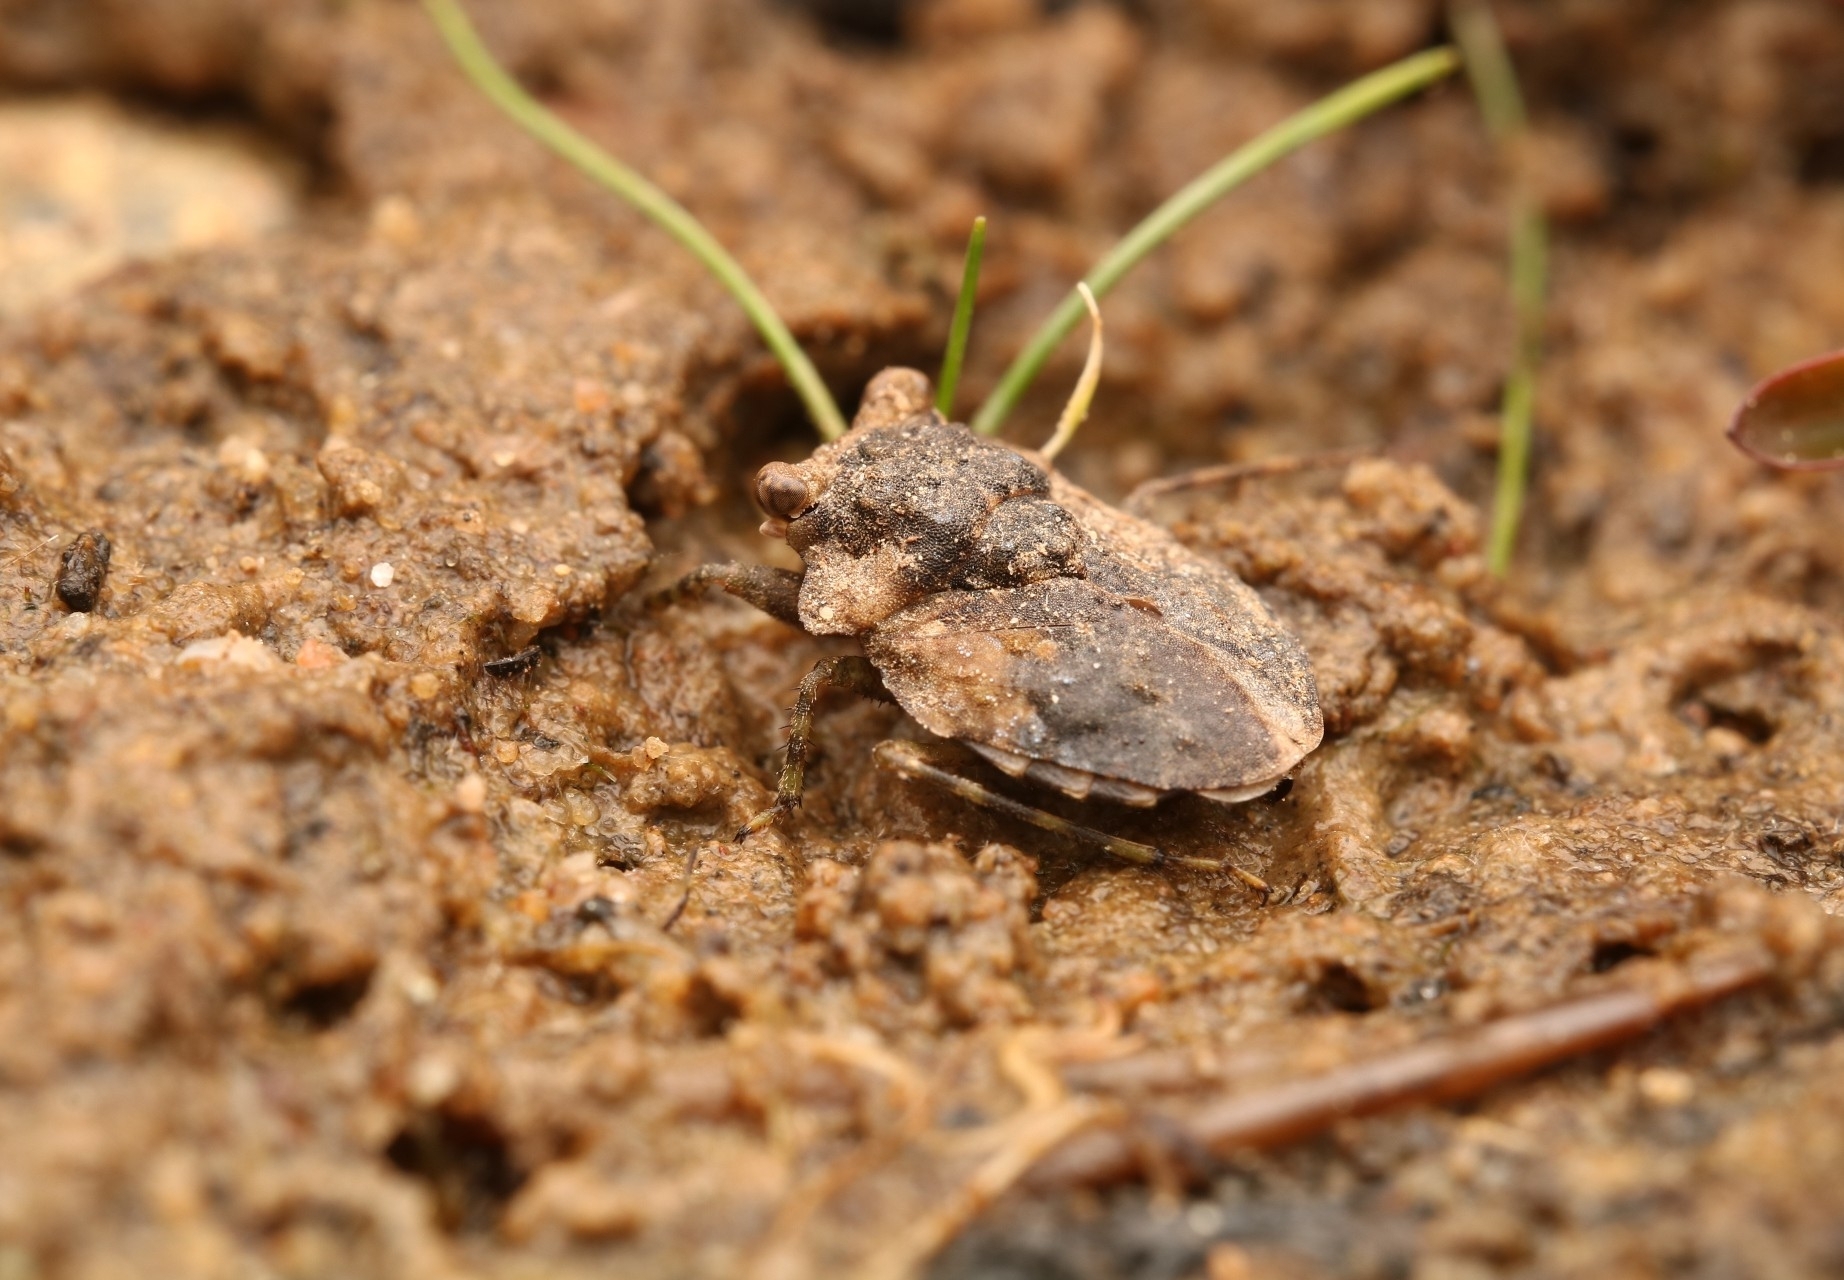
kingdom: Animalia
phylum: Arthropoda
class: Insecta
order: Hemiptera
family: Gelastocoridae
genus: Gelastocoris
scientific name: Gelastocoris oculatus
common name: Toad bug
